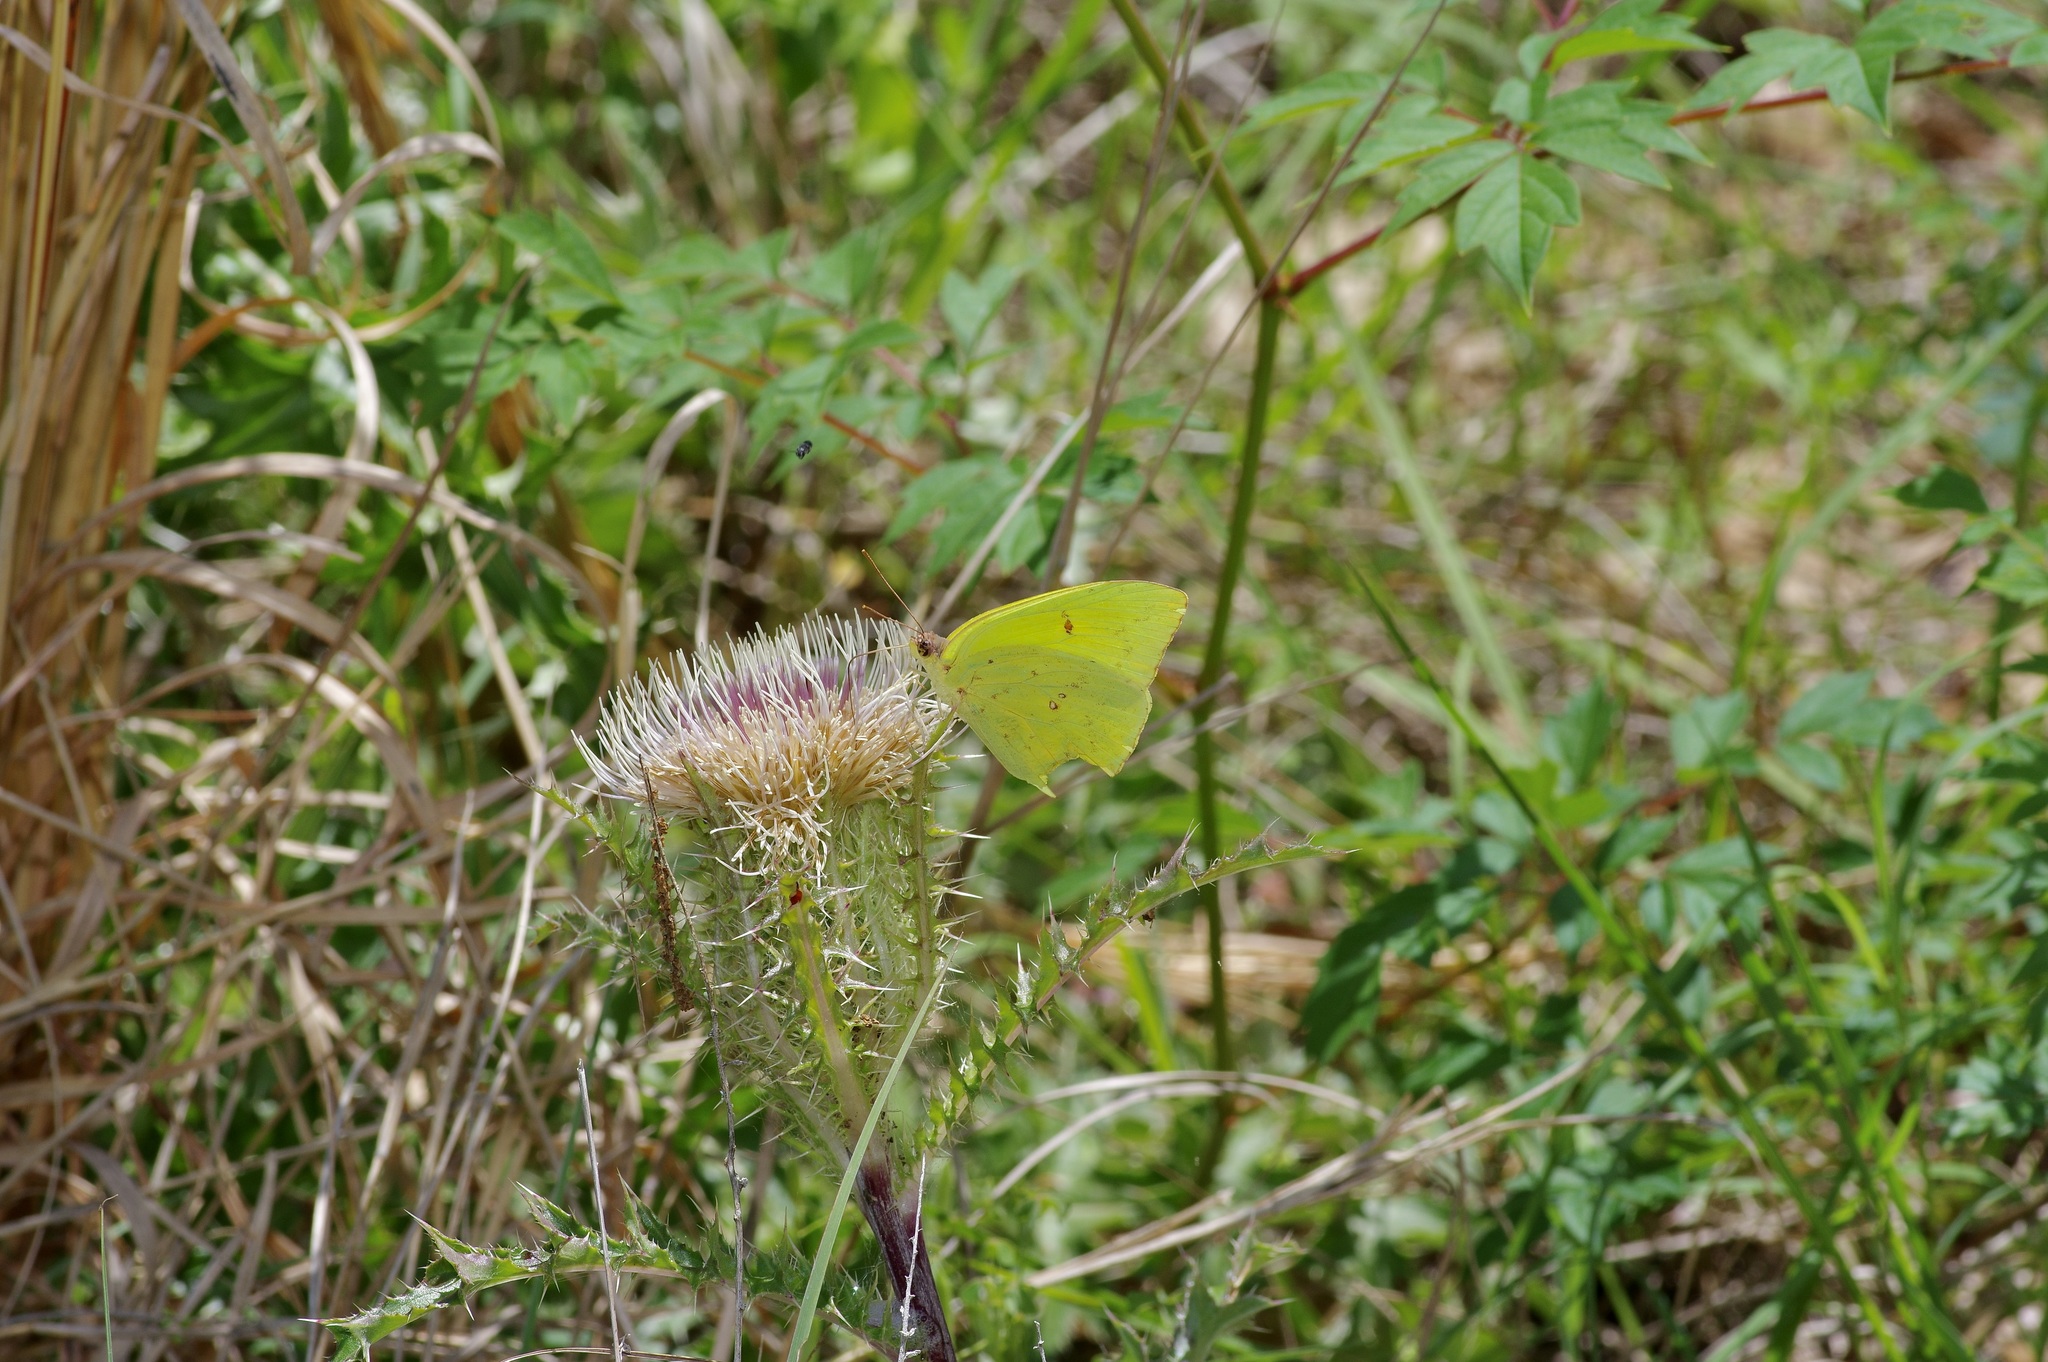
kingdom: Animalia
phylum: Arthropoda
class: Insecta
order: Lepidoptera
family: Pieridae
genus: Phoebis
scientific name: Phoebis sennae
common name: Cloudless sulphur
